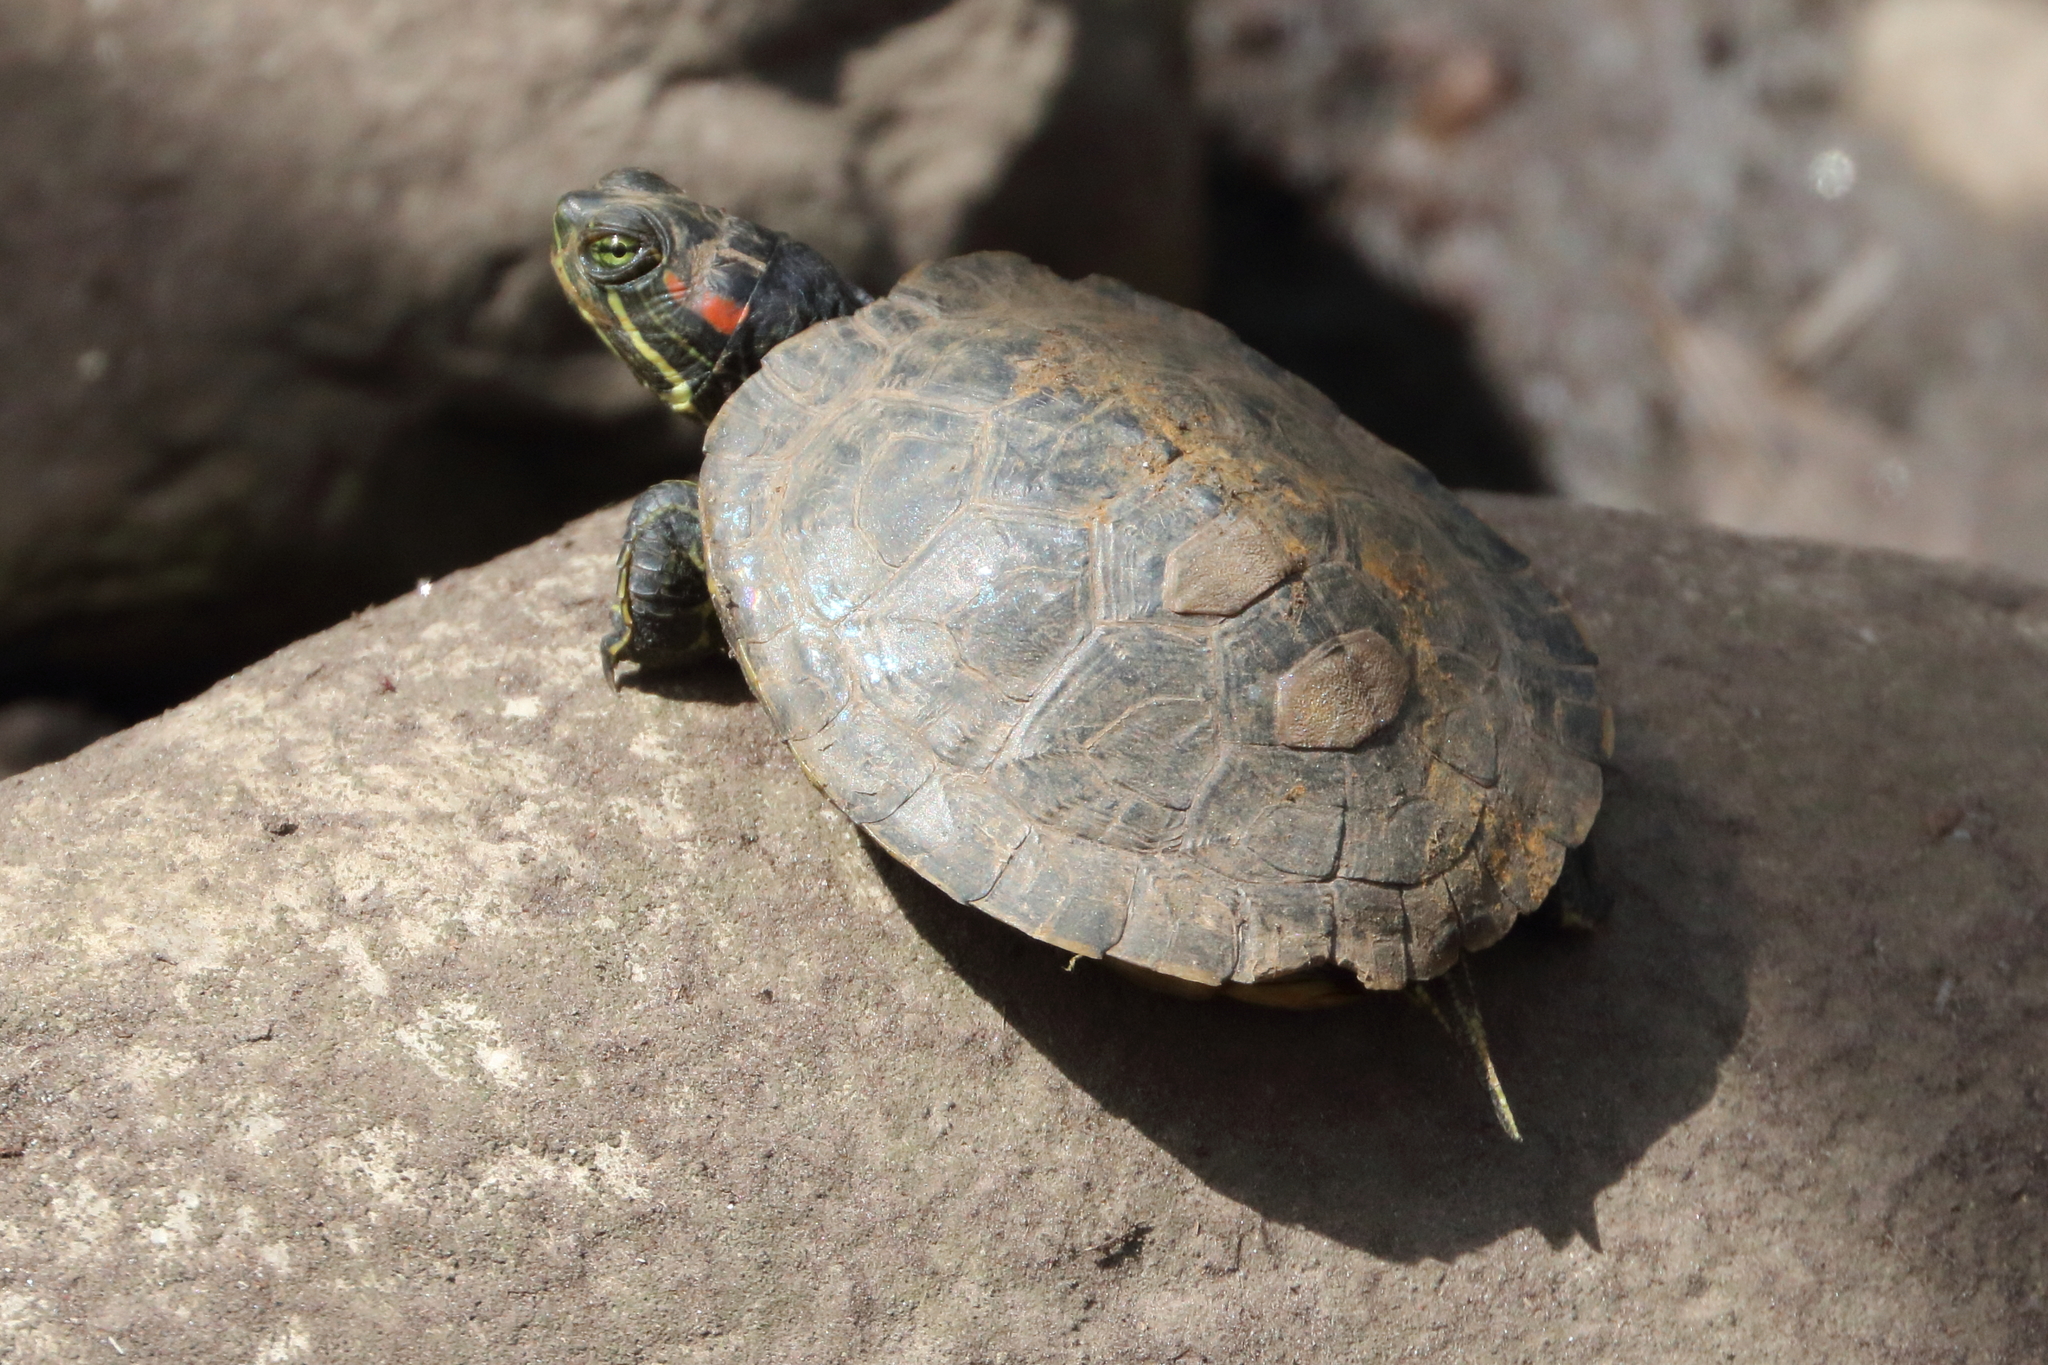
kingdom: Animalia
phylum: Chordata
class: Testudines
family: Emydidae
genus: Trachemys
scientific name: Trachemys scripta
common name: Slider
